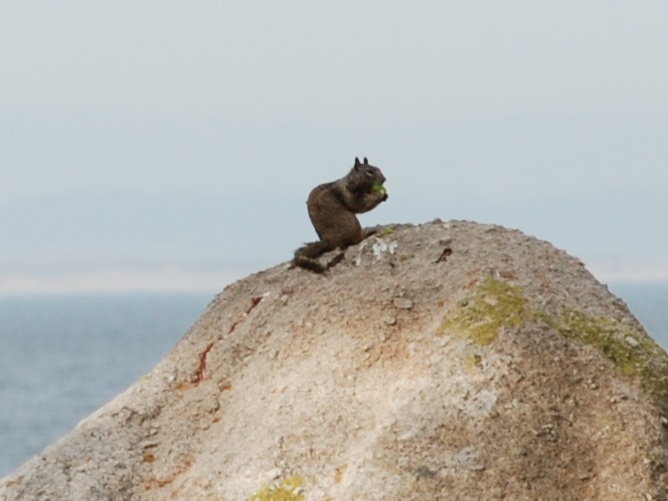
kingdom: Animalia
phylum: Chordata
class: Mammalia
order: Rodentia
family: Sciuridae
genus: Otospermophilus
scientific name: Otospermophilus beecheyi
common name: California ground squirrel
